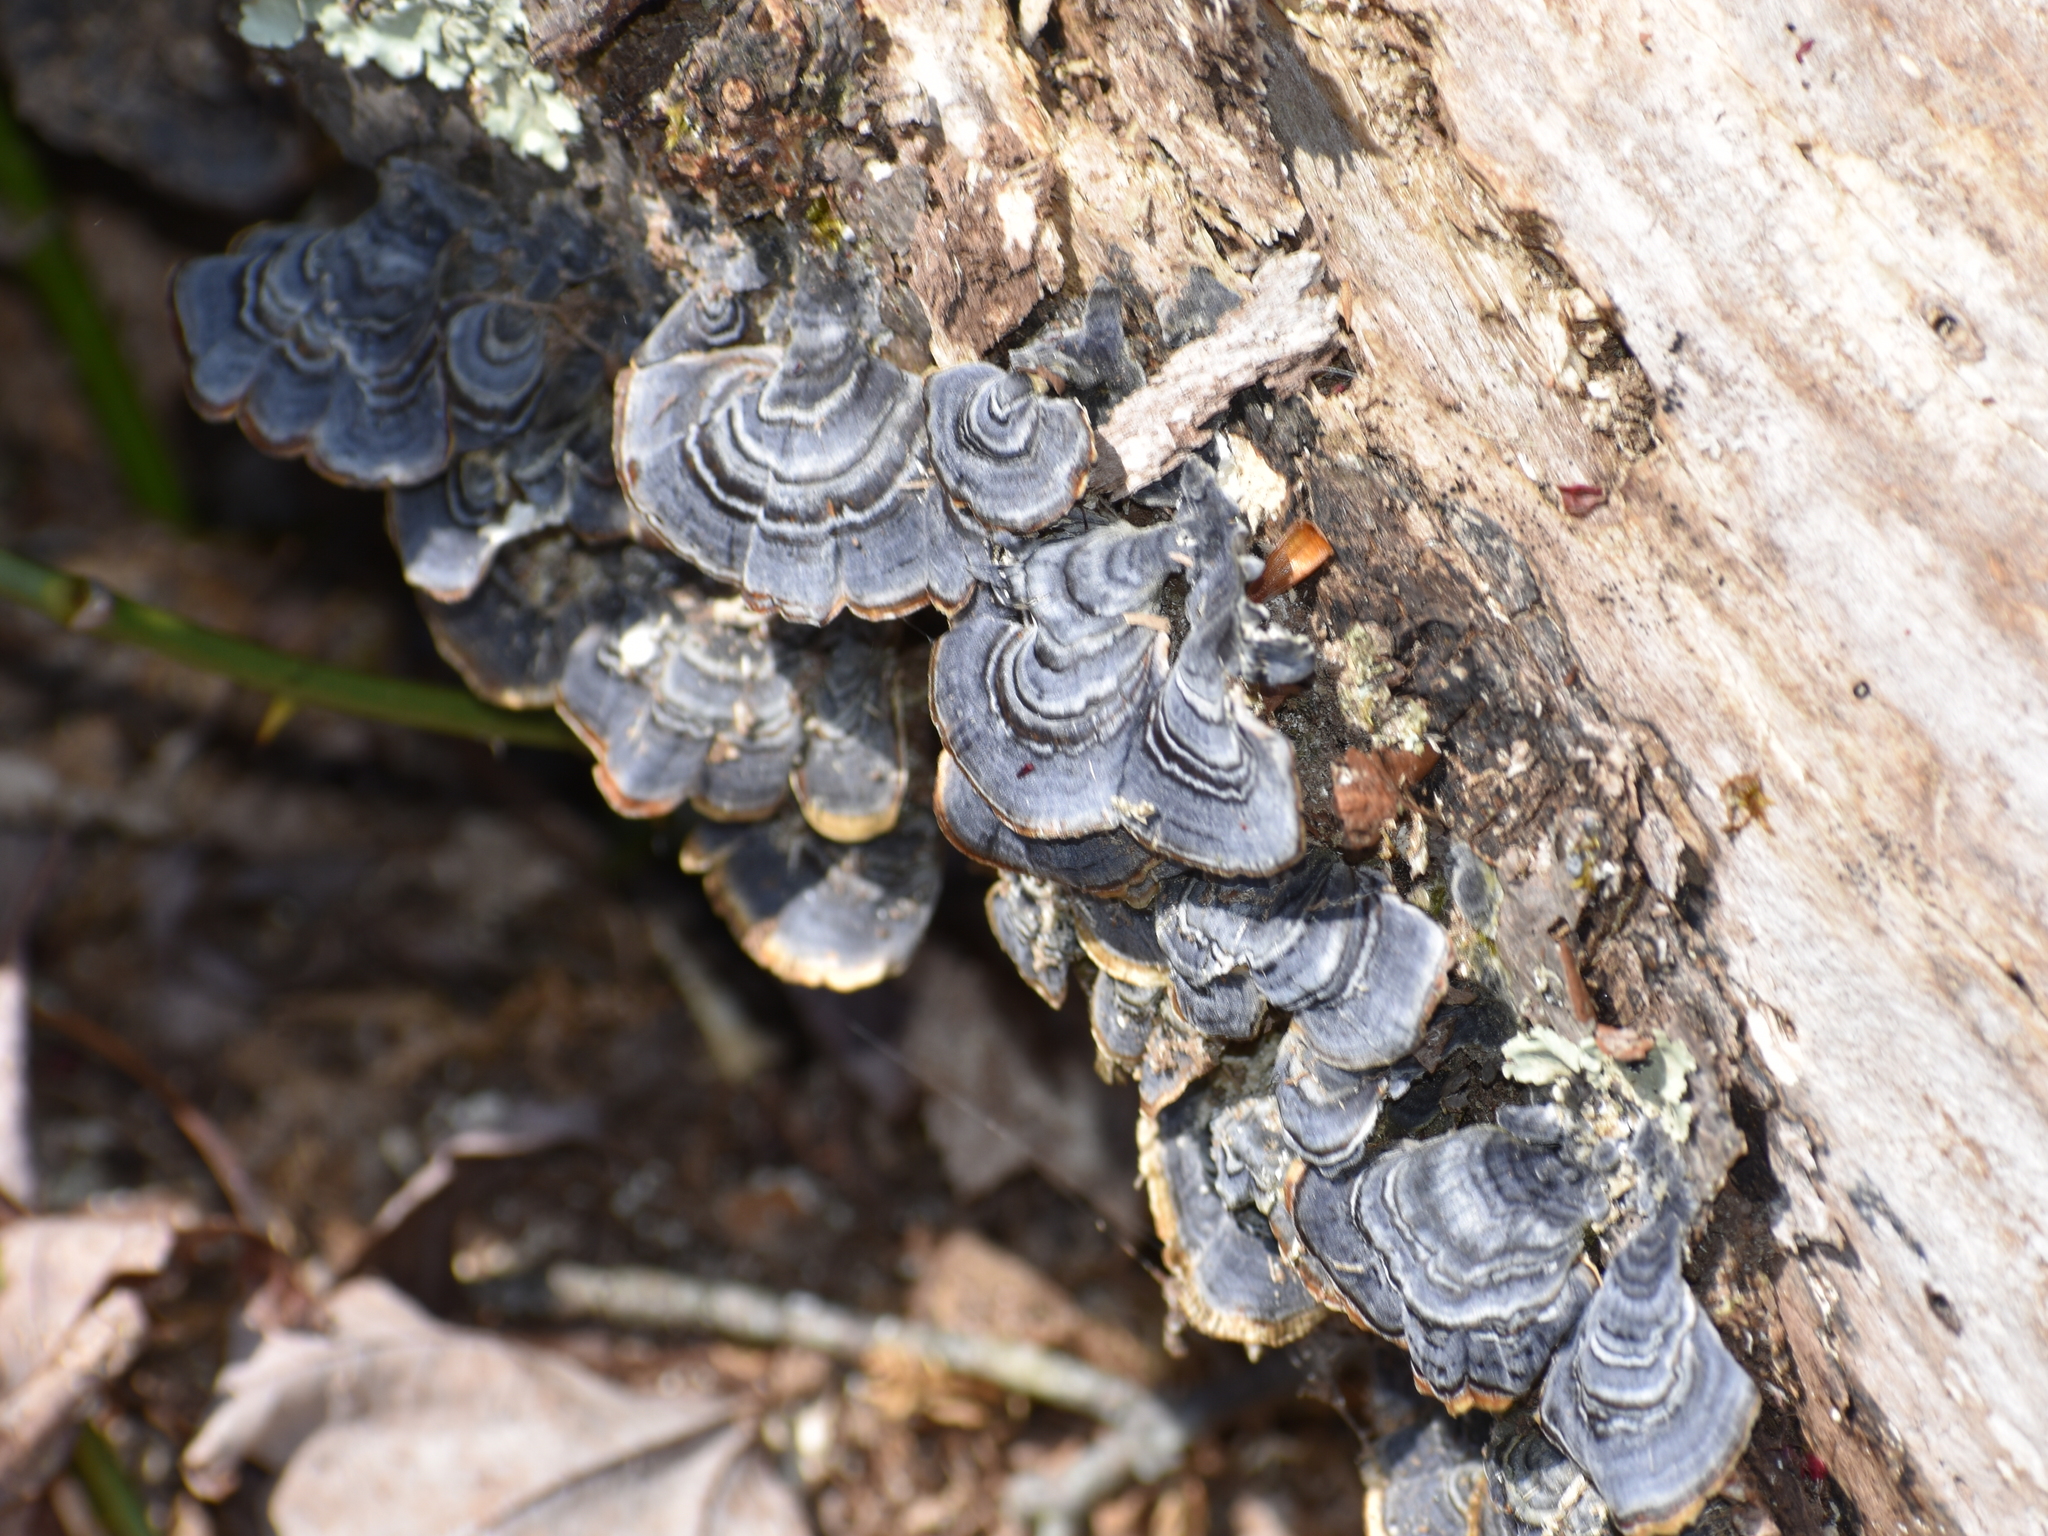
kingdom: Fungi
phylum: Basidiomycota
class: Agaricomycetes
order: Polyporales
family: Polyporaceae
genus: Trametes
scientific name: Trametes versicolor
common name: Turkeytail
